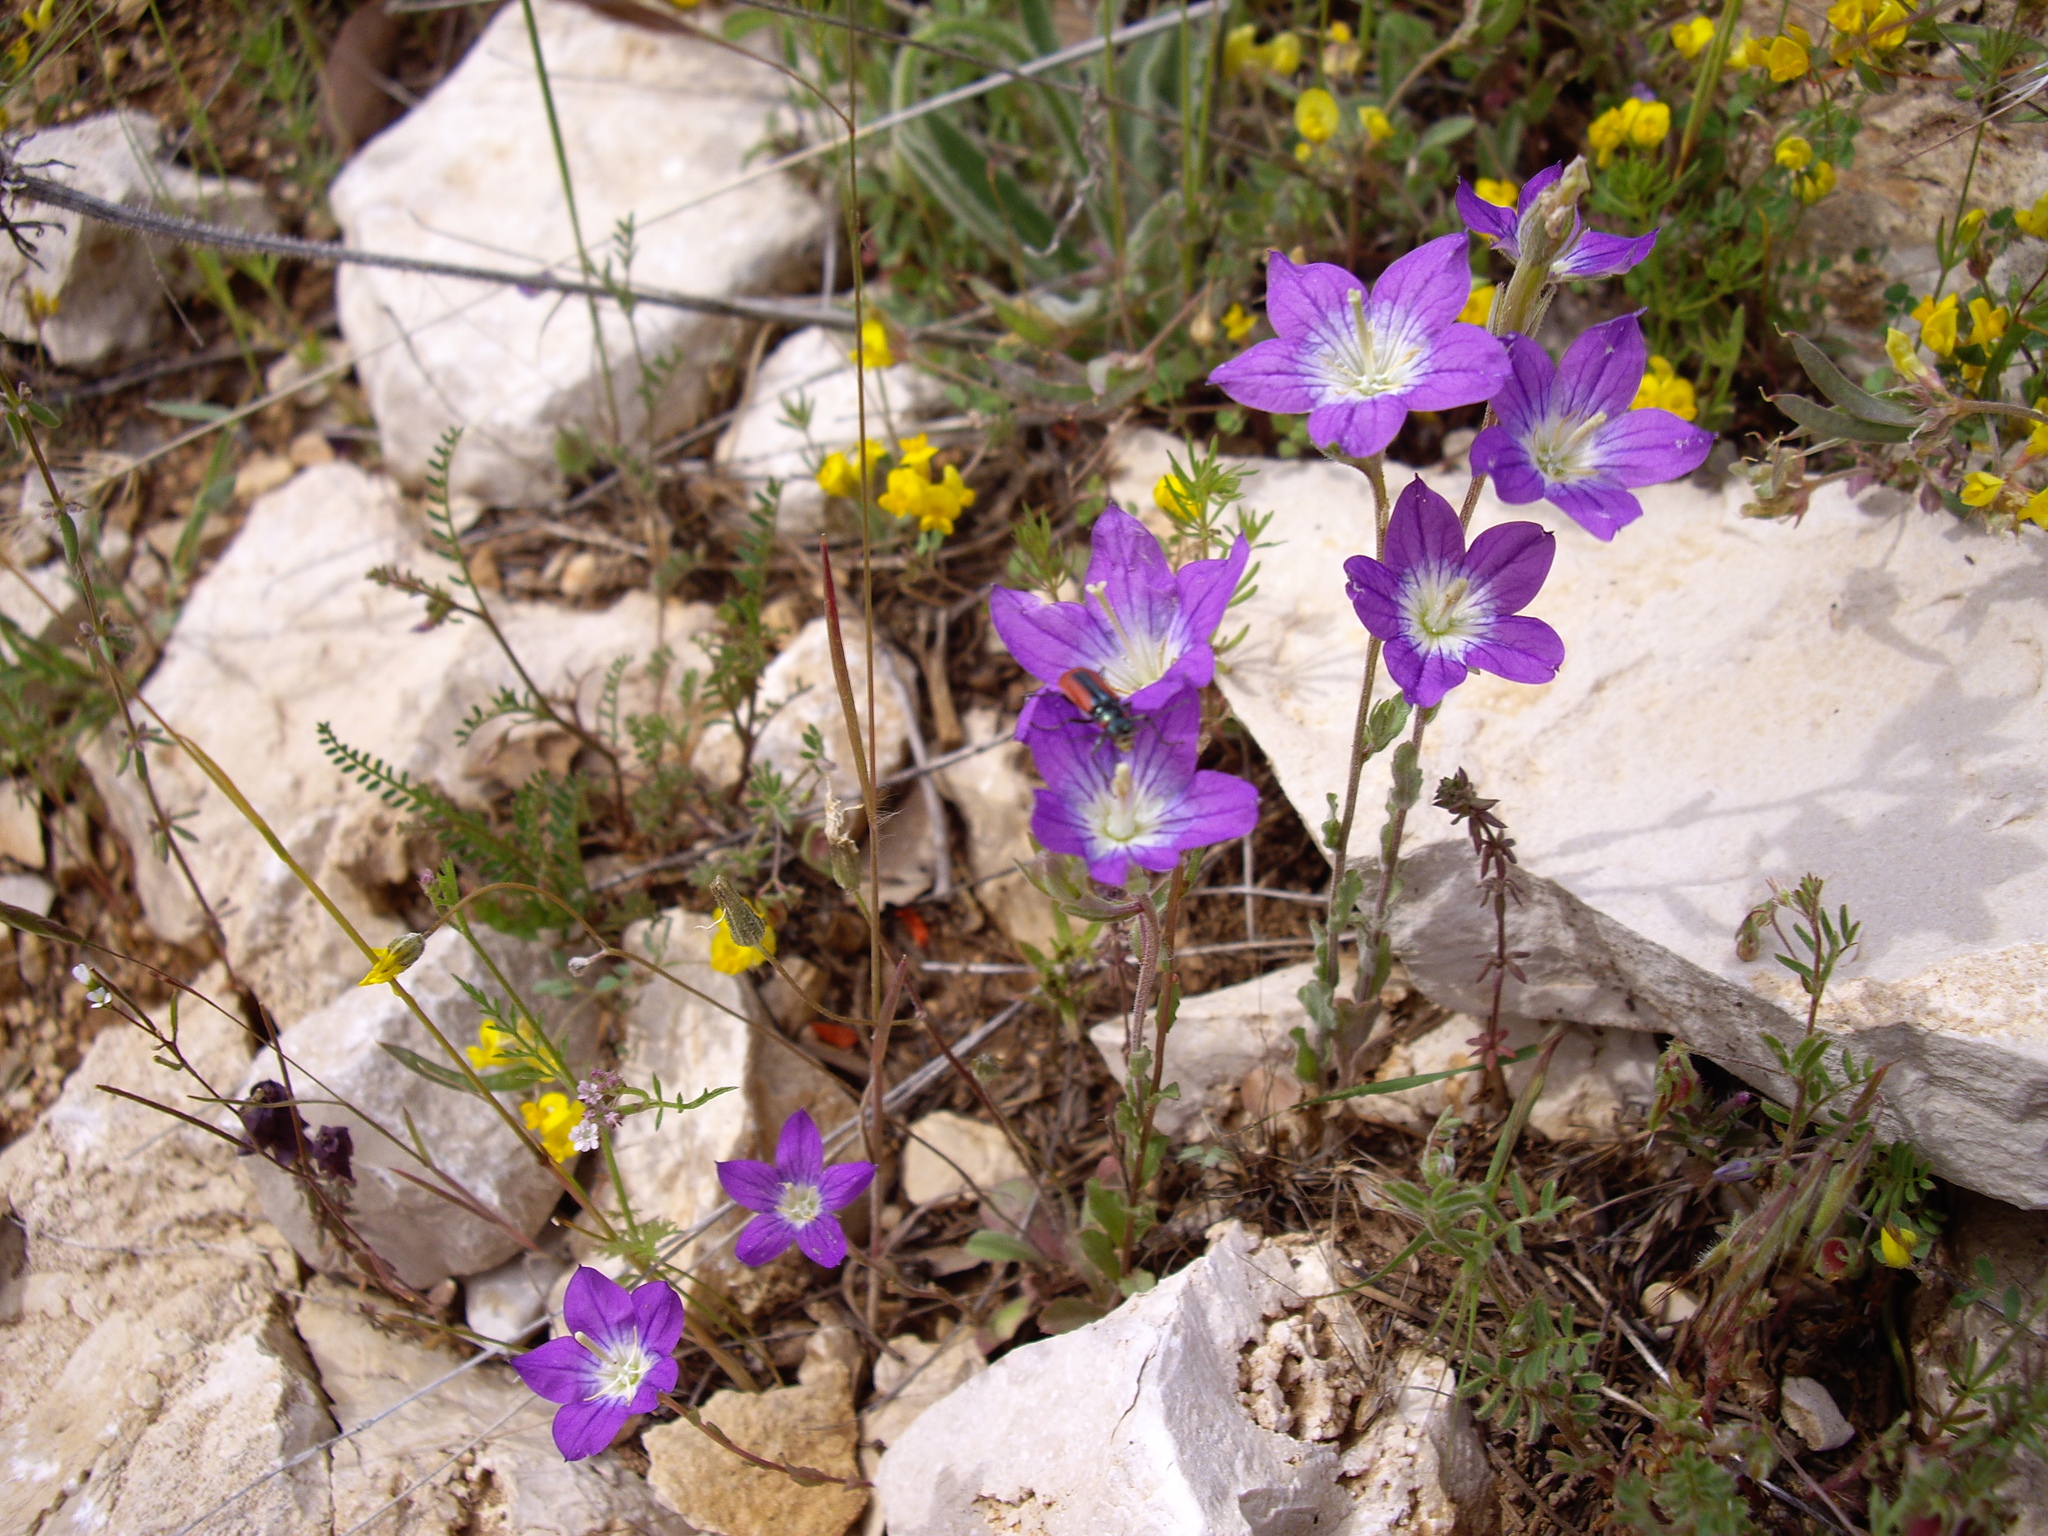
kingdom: Plantae
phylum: Tracheophyta
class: Magnoliopsida
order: Asterales
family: Campanulaceae
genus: Legousia
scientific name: Legousia pentagonia
